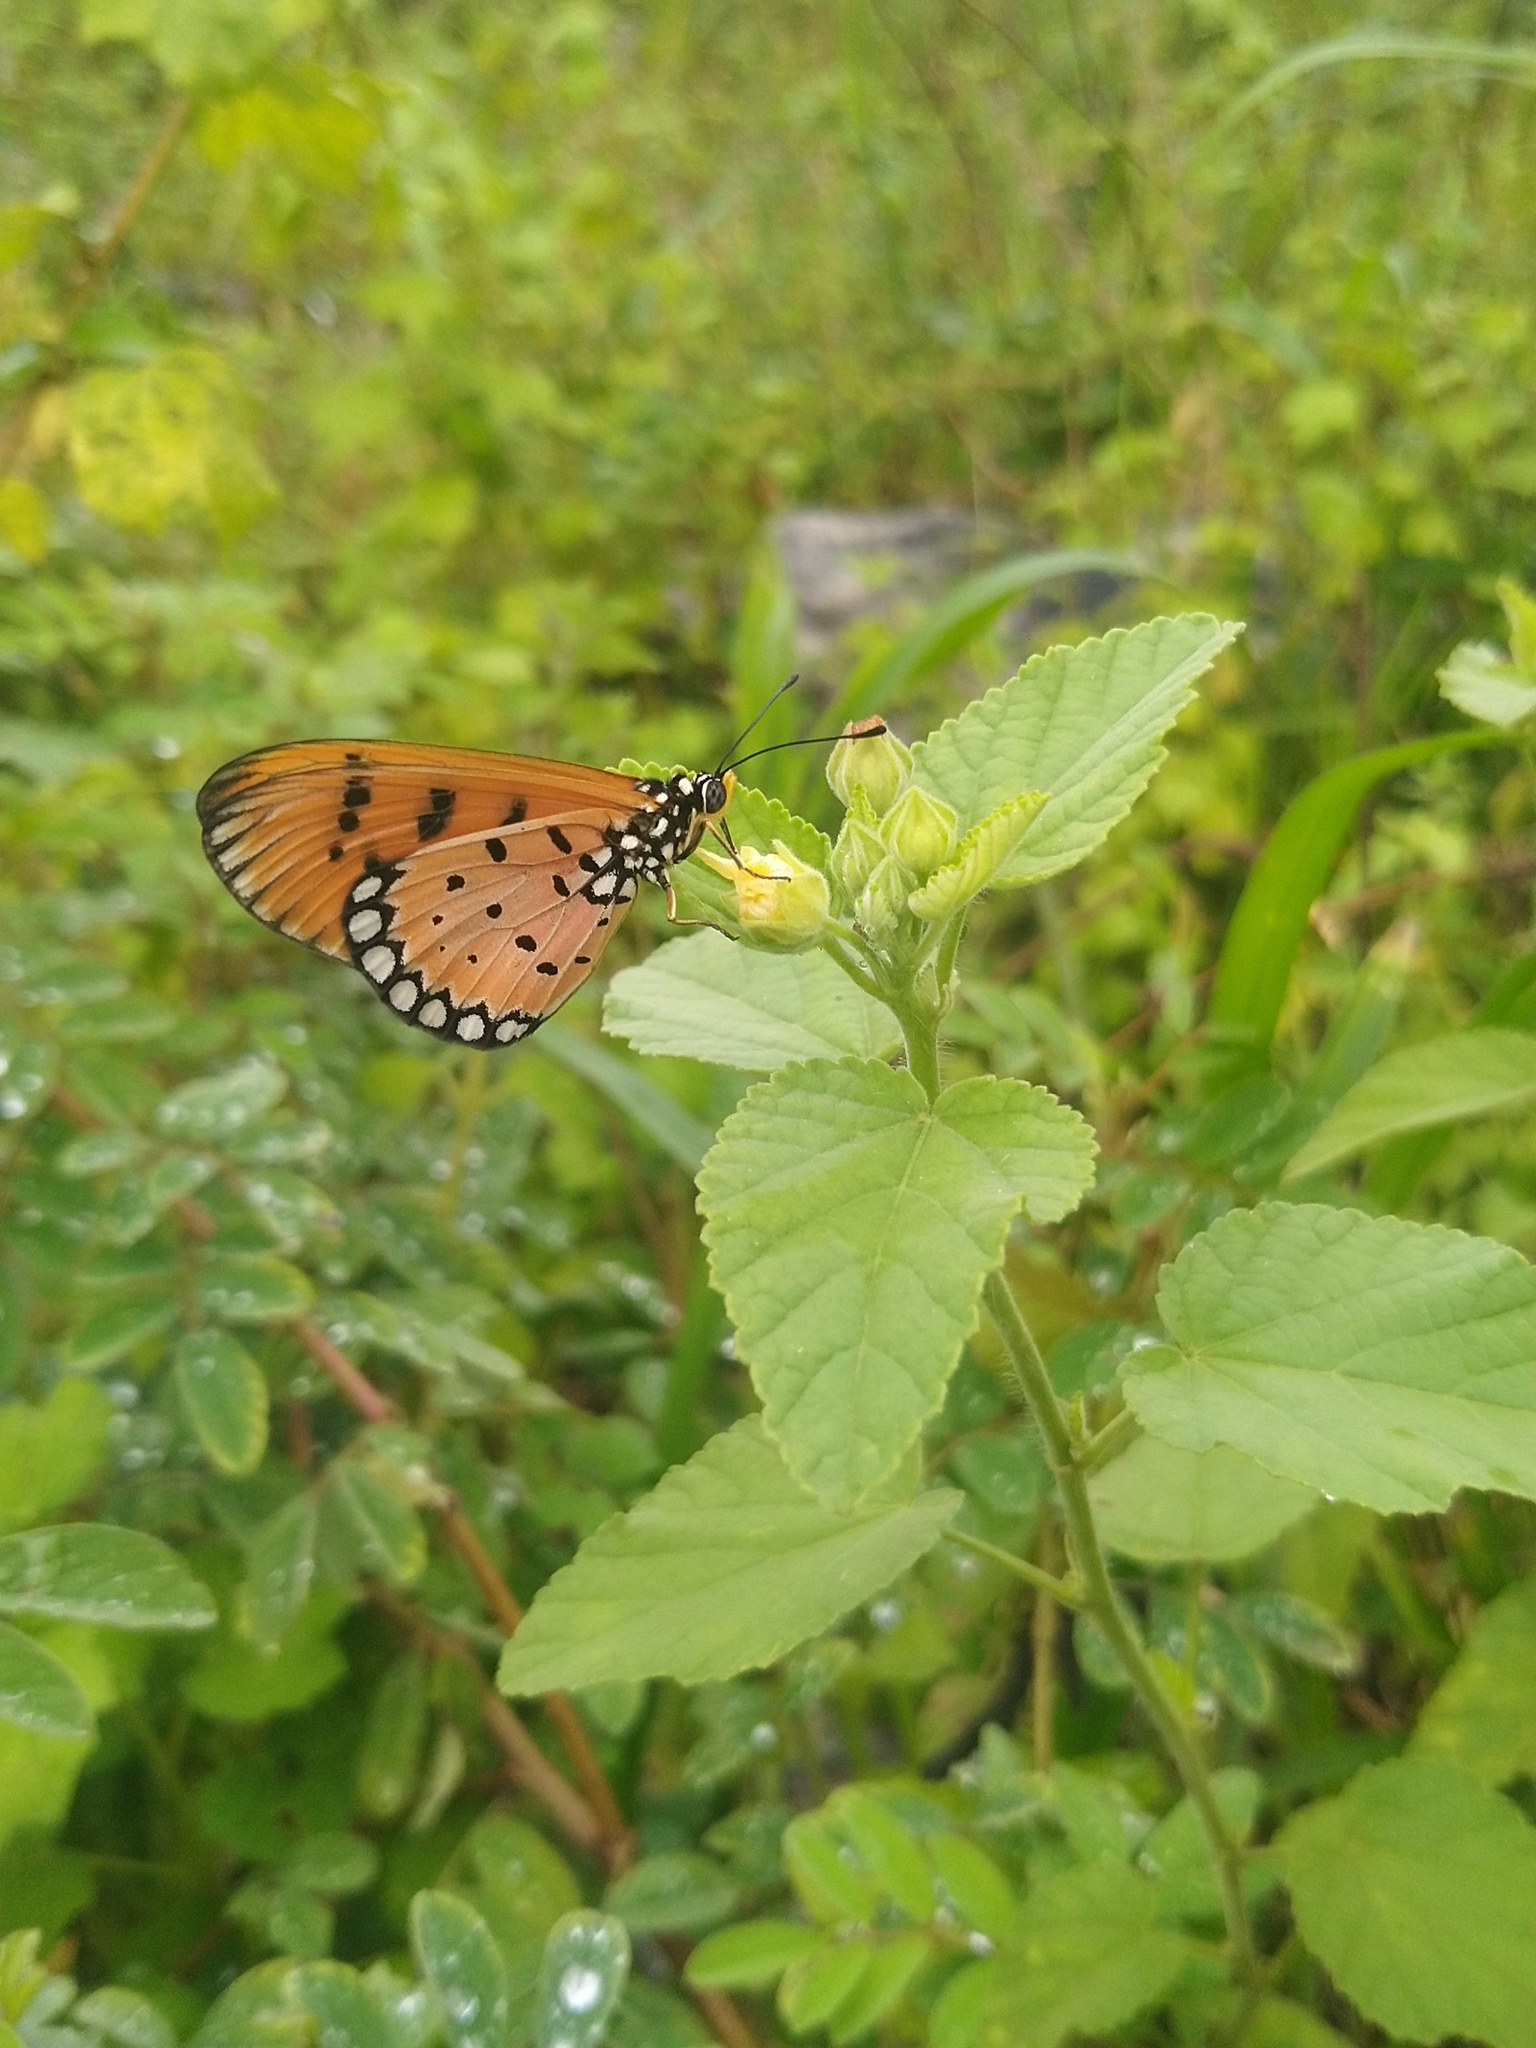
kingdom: Animalia
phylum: Arthropoda
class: Insecta
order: Lepidoptera
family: Nymphalidae
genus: Acraea
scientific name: Acraea terpsicore
